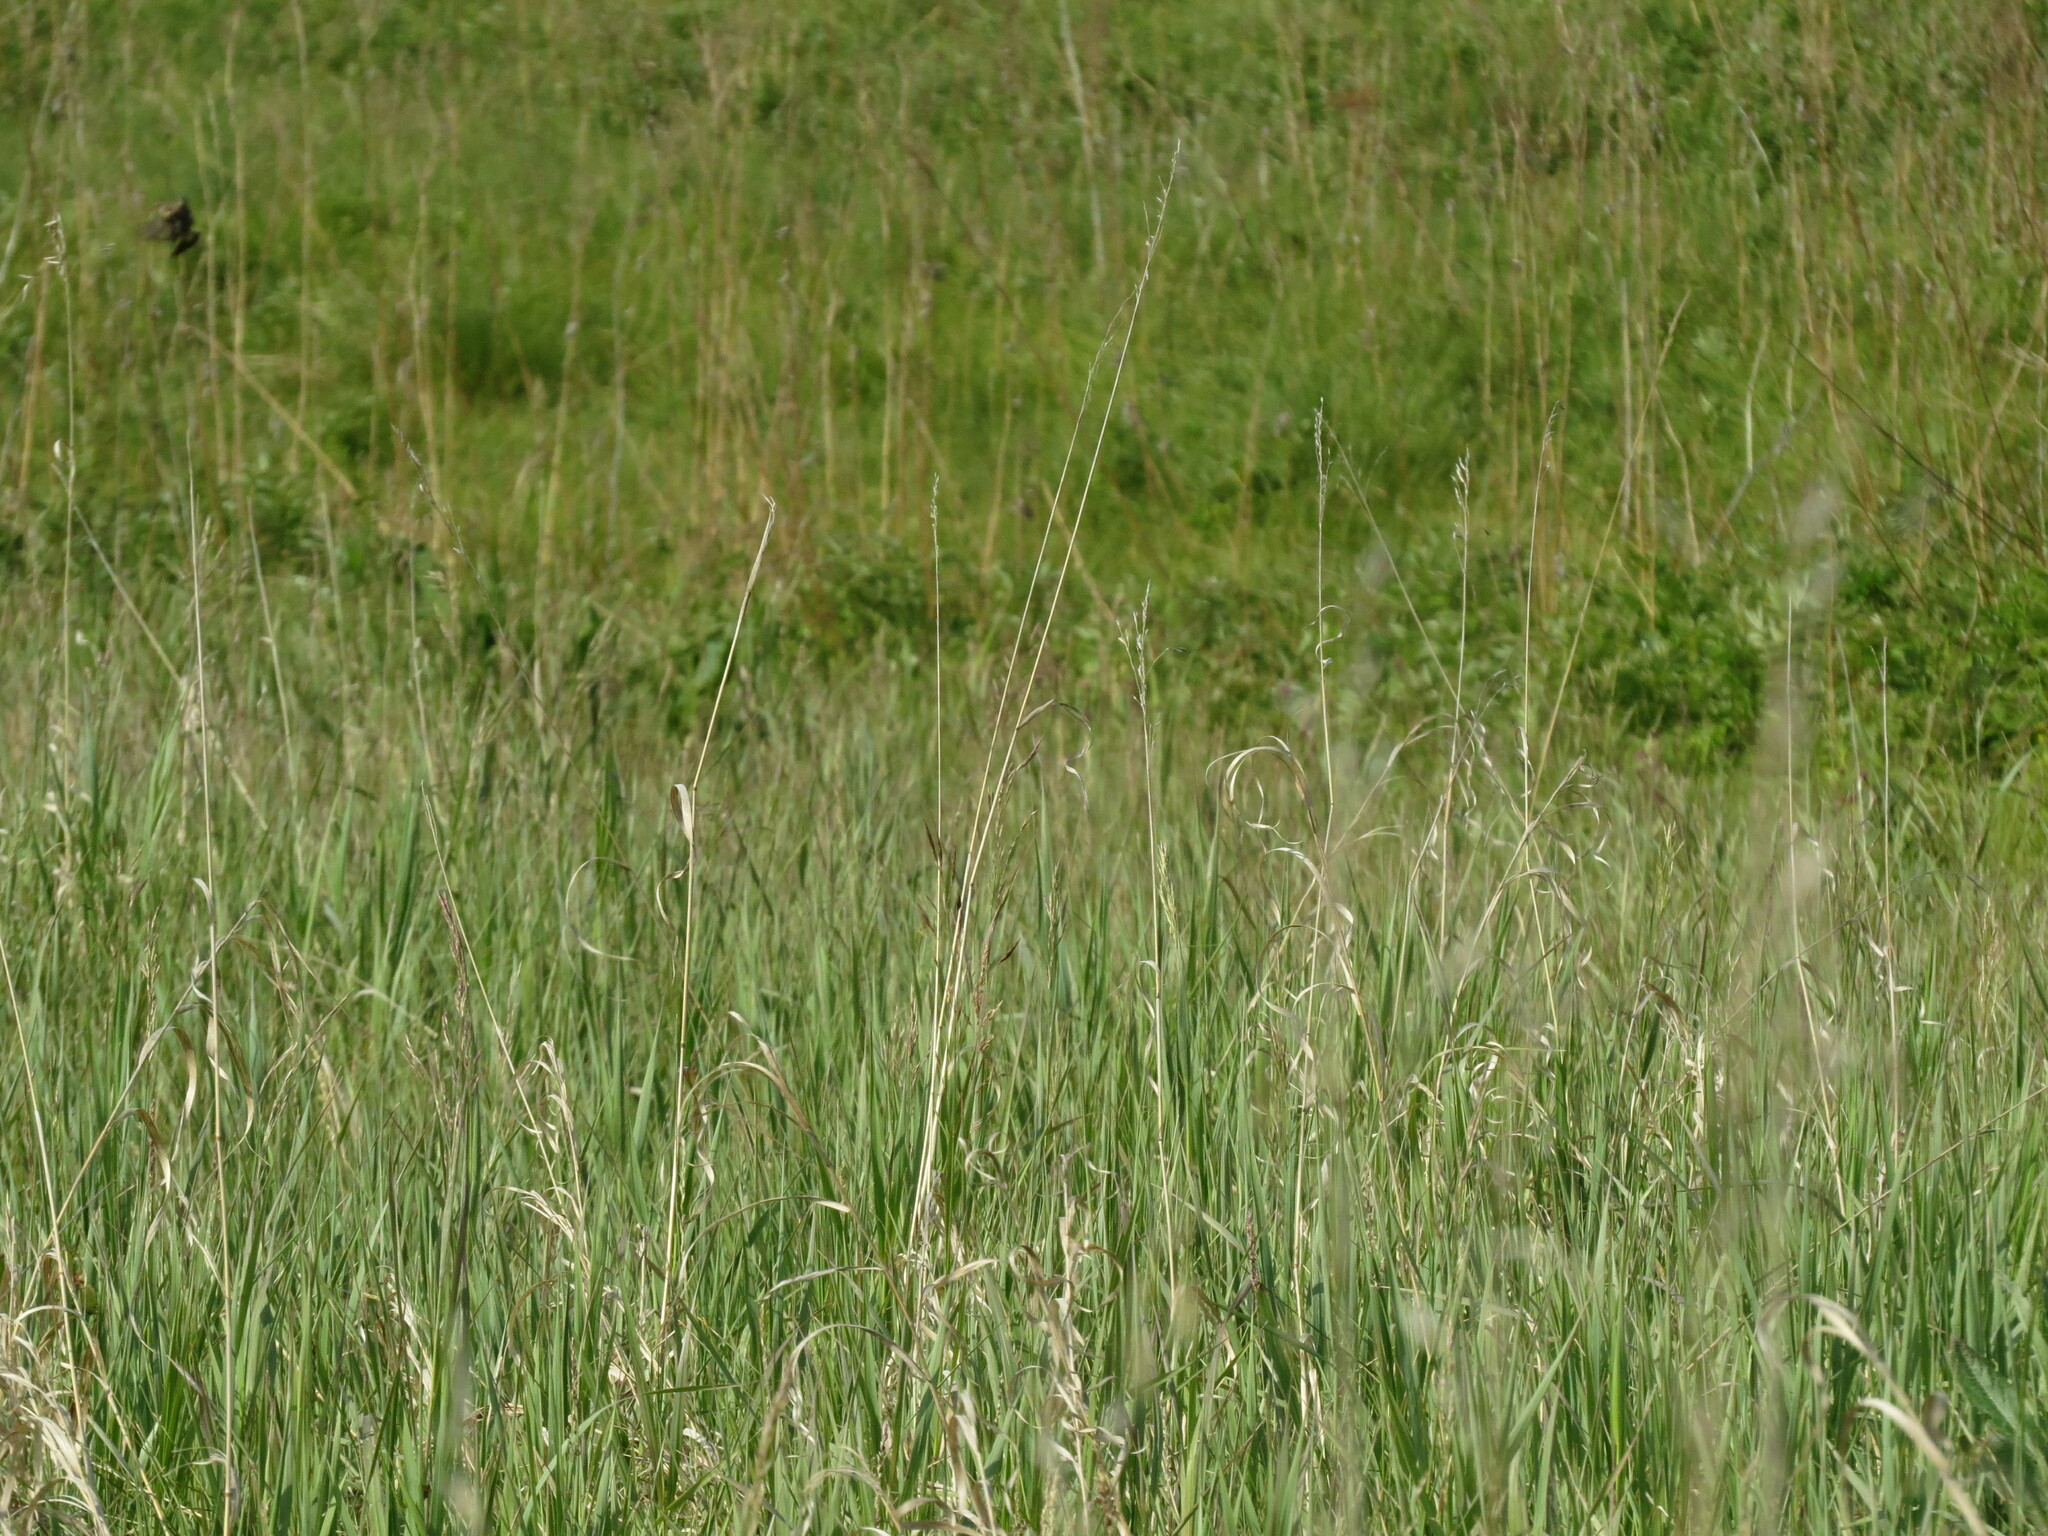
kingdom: Animalia
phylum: Chordata
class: Aves
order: Passeriformes
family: Muscicapidae
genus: Saxicola
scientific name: Saxicola maurus
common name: Siberian stonechat
